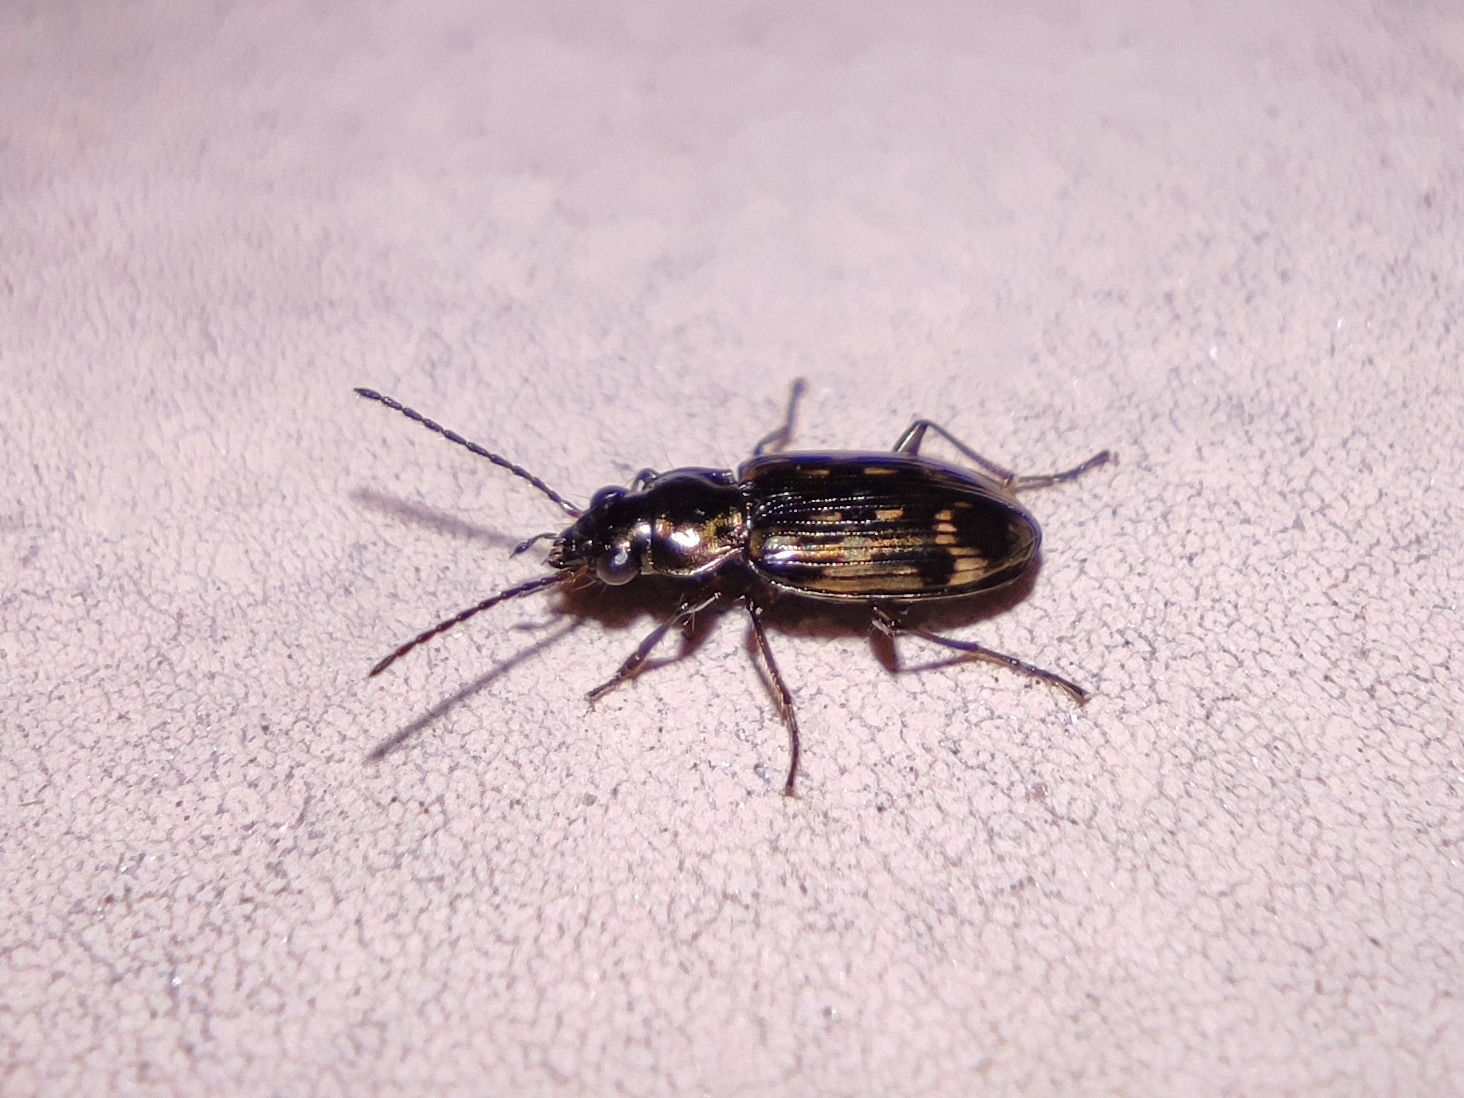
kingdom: Animalia
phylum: Arthropoda
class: Insecta
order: Coleoptera
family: Carabidae
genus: Bembidion
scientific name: Bembidion varium
